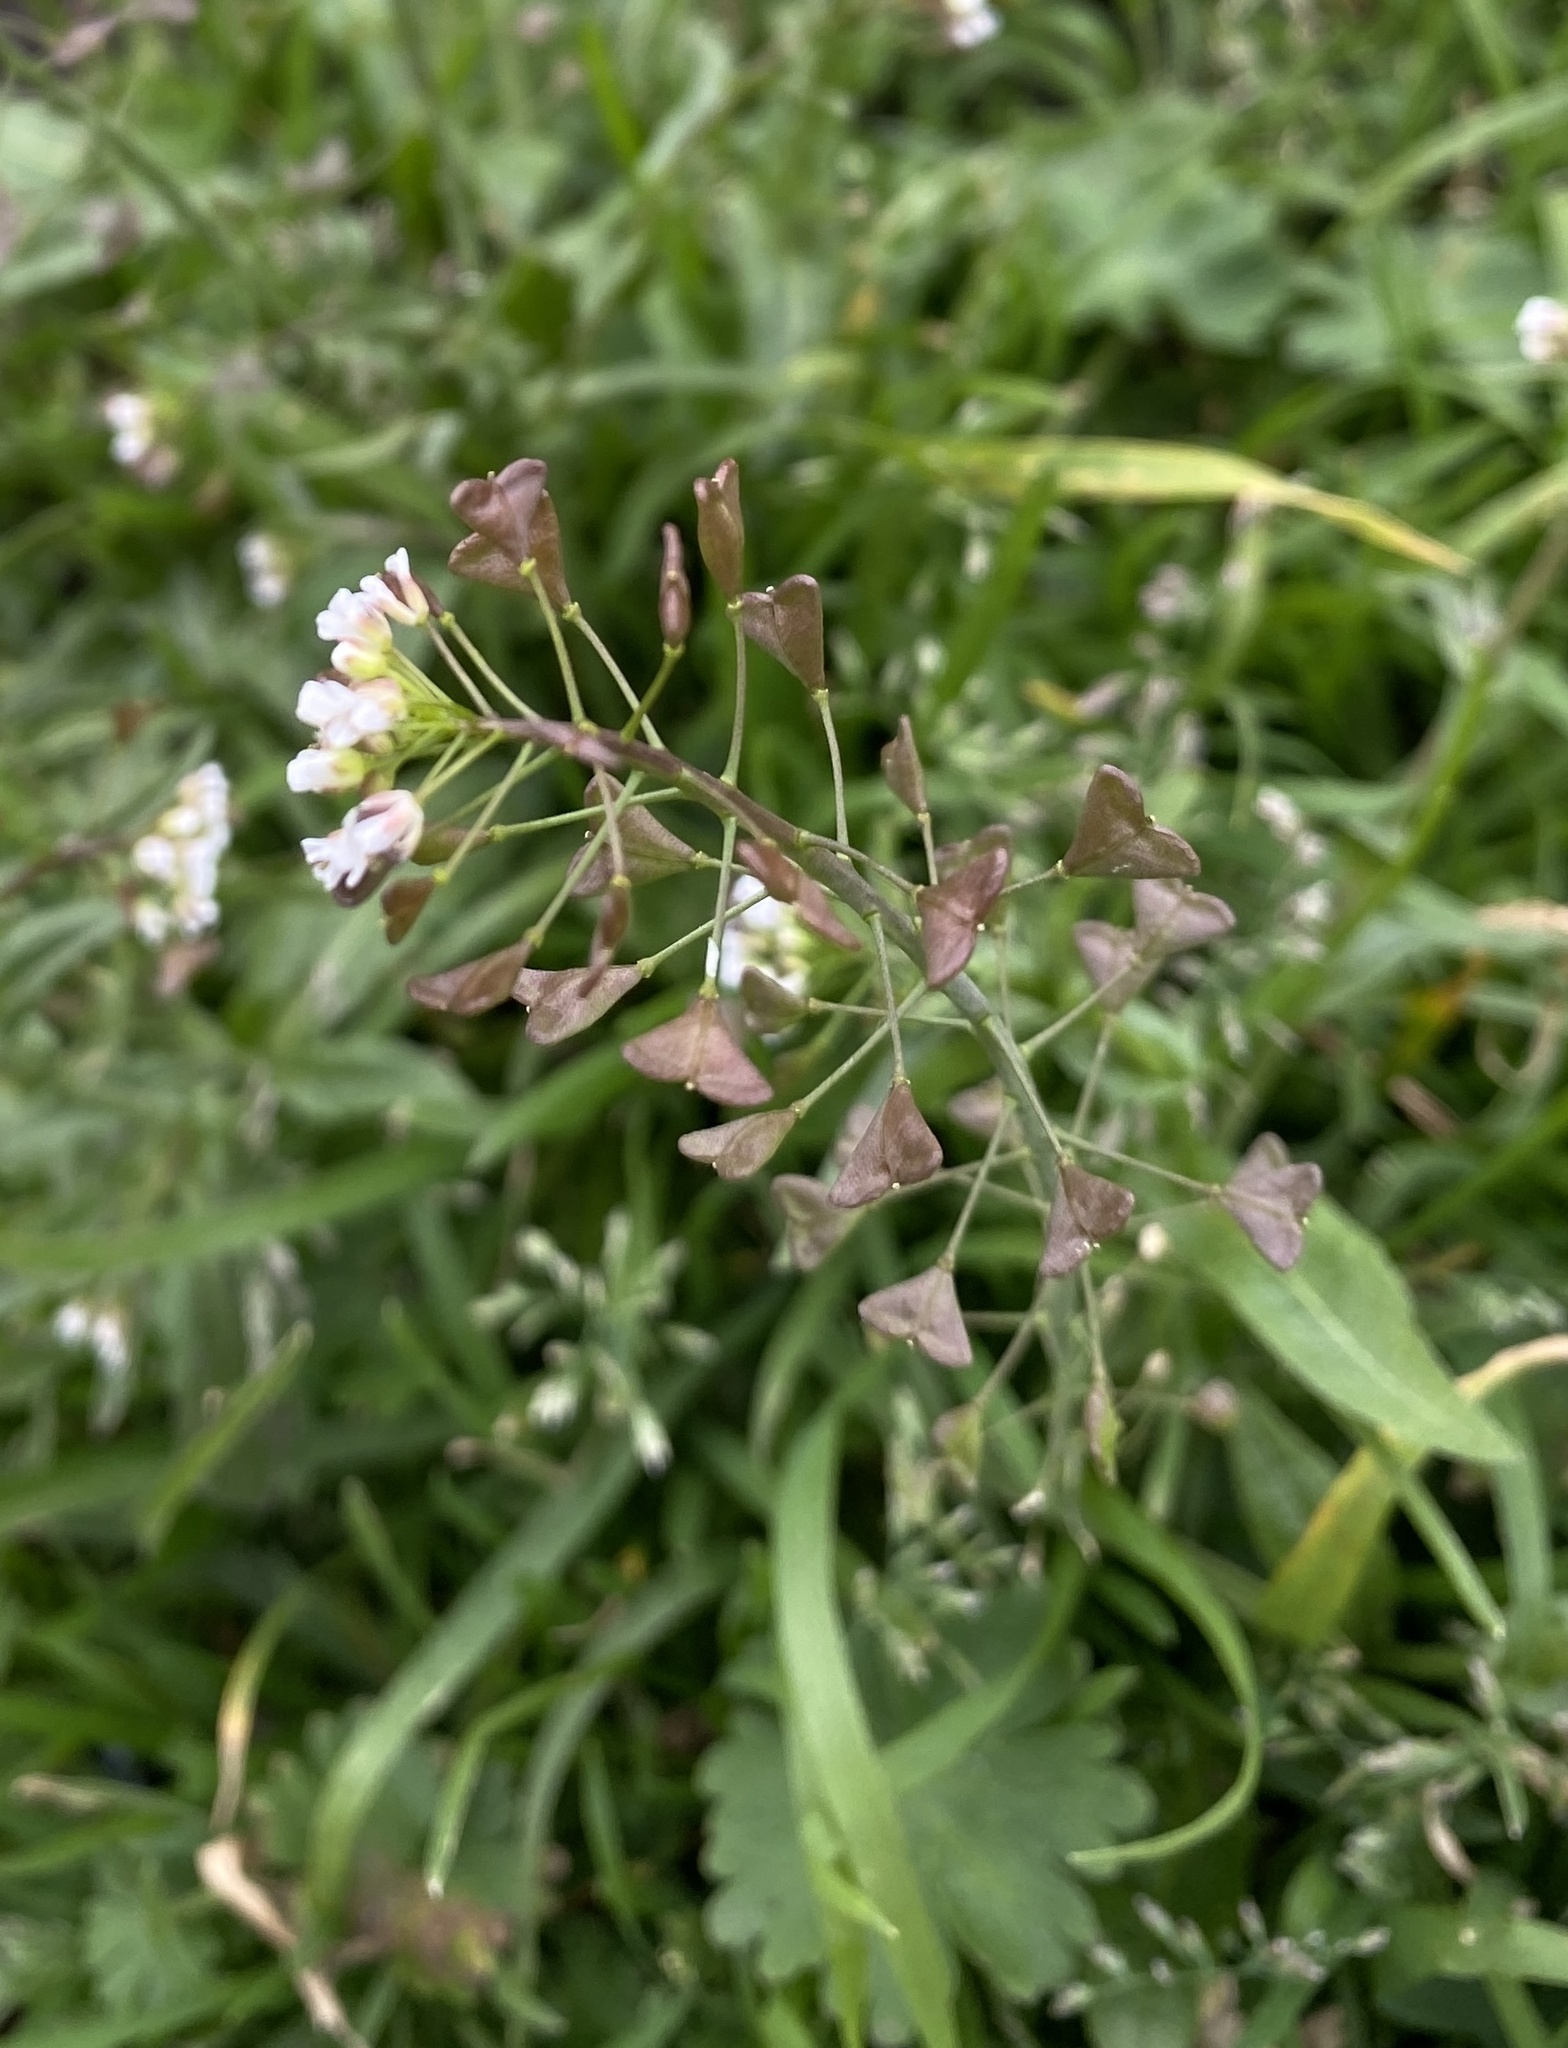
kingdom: Plantae
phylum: Tracheophyta
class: Magnoliopsida
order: Brassicales
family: Brassicaceae
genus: Capsella
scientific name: Capsella bursa-pastoris
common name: Shepherd's purse
